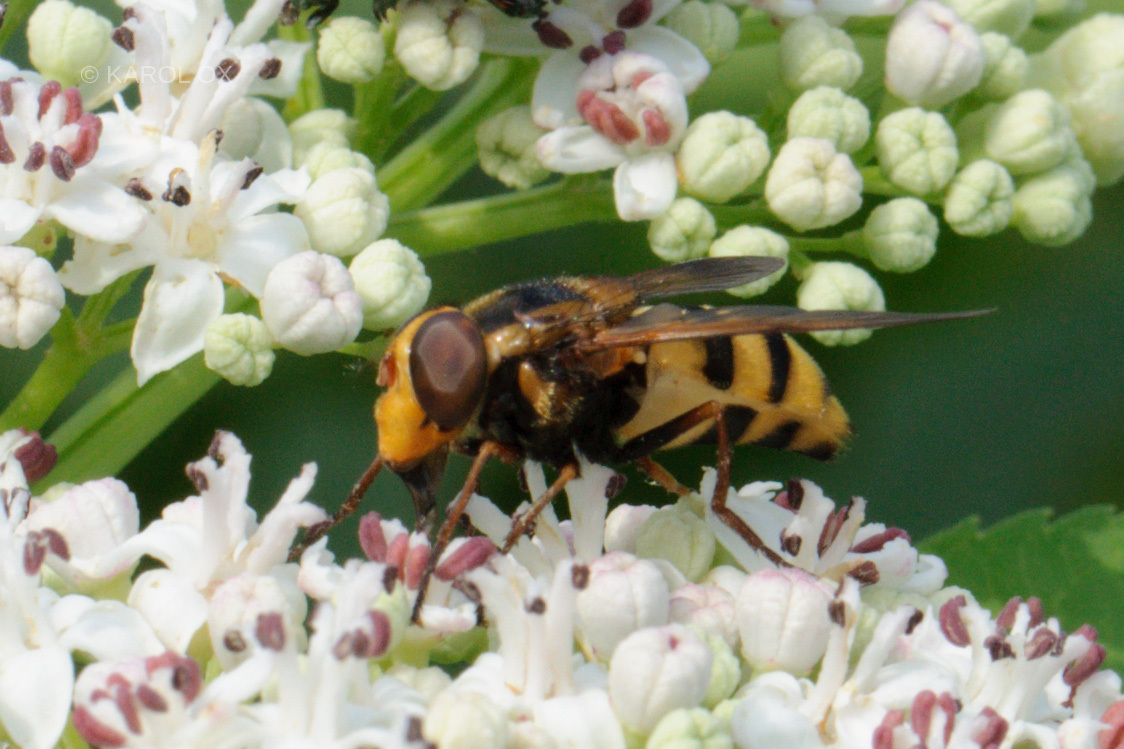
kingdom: Animalia
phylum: Arthropoda
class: Insecta
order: Diptera
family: Syrphidae
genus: Volucella
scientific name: Volucella inanis
